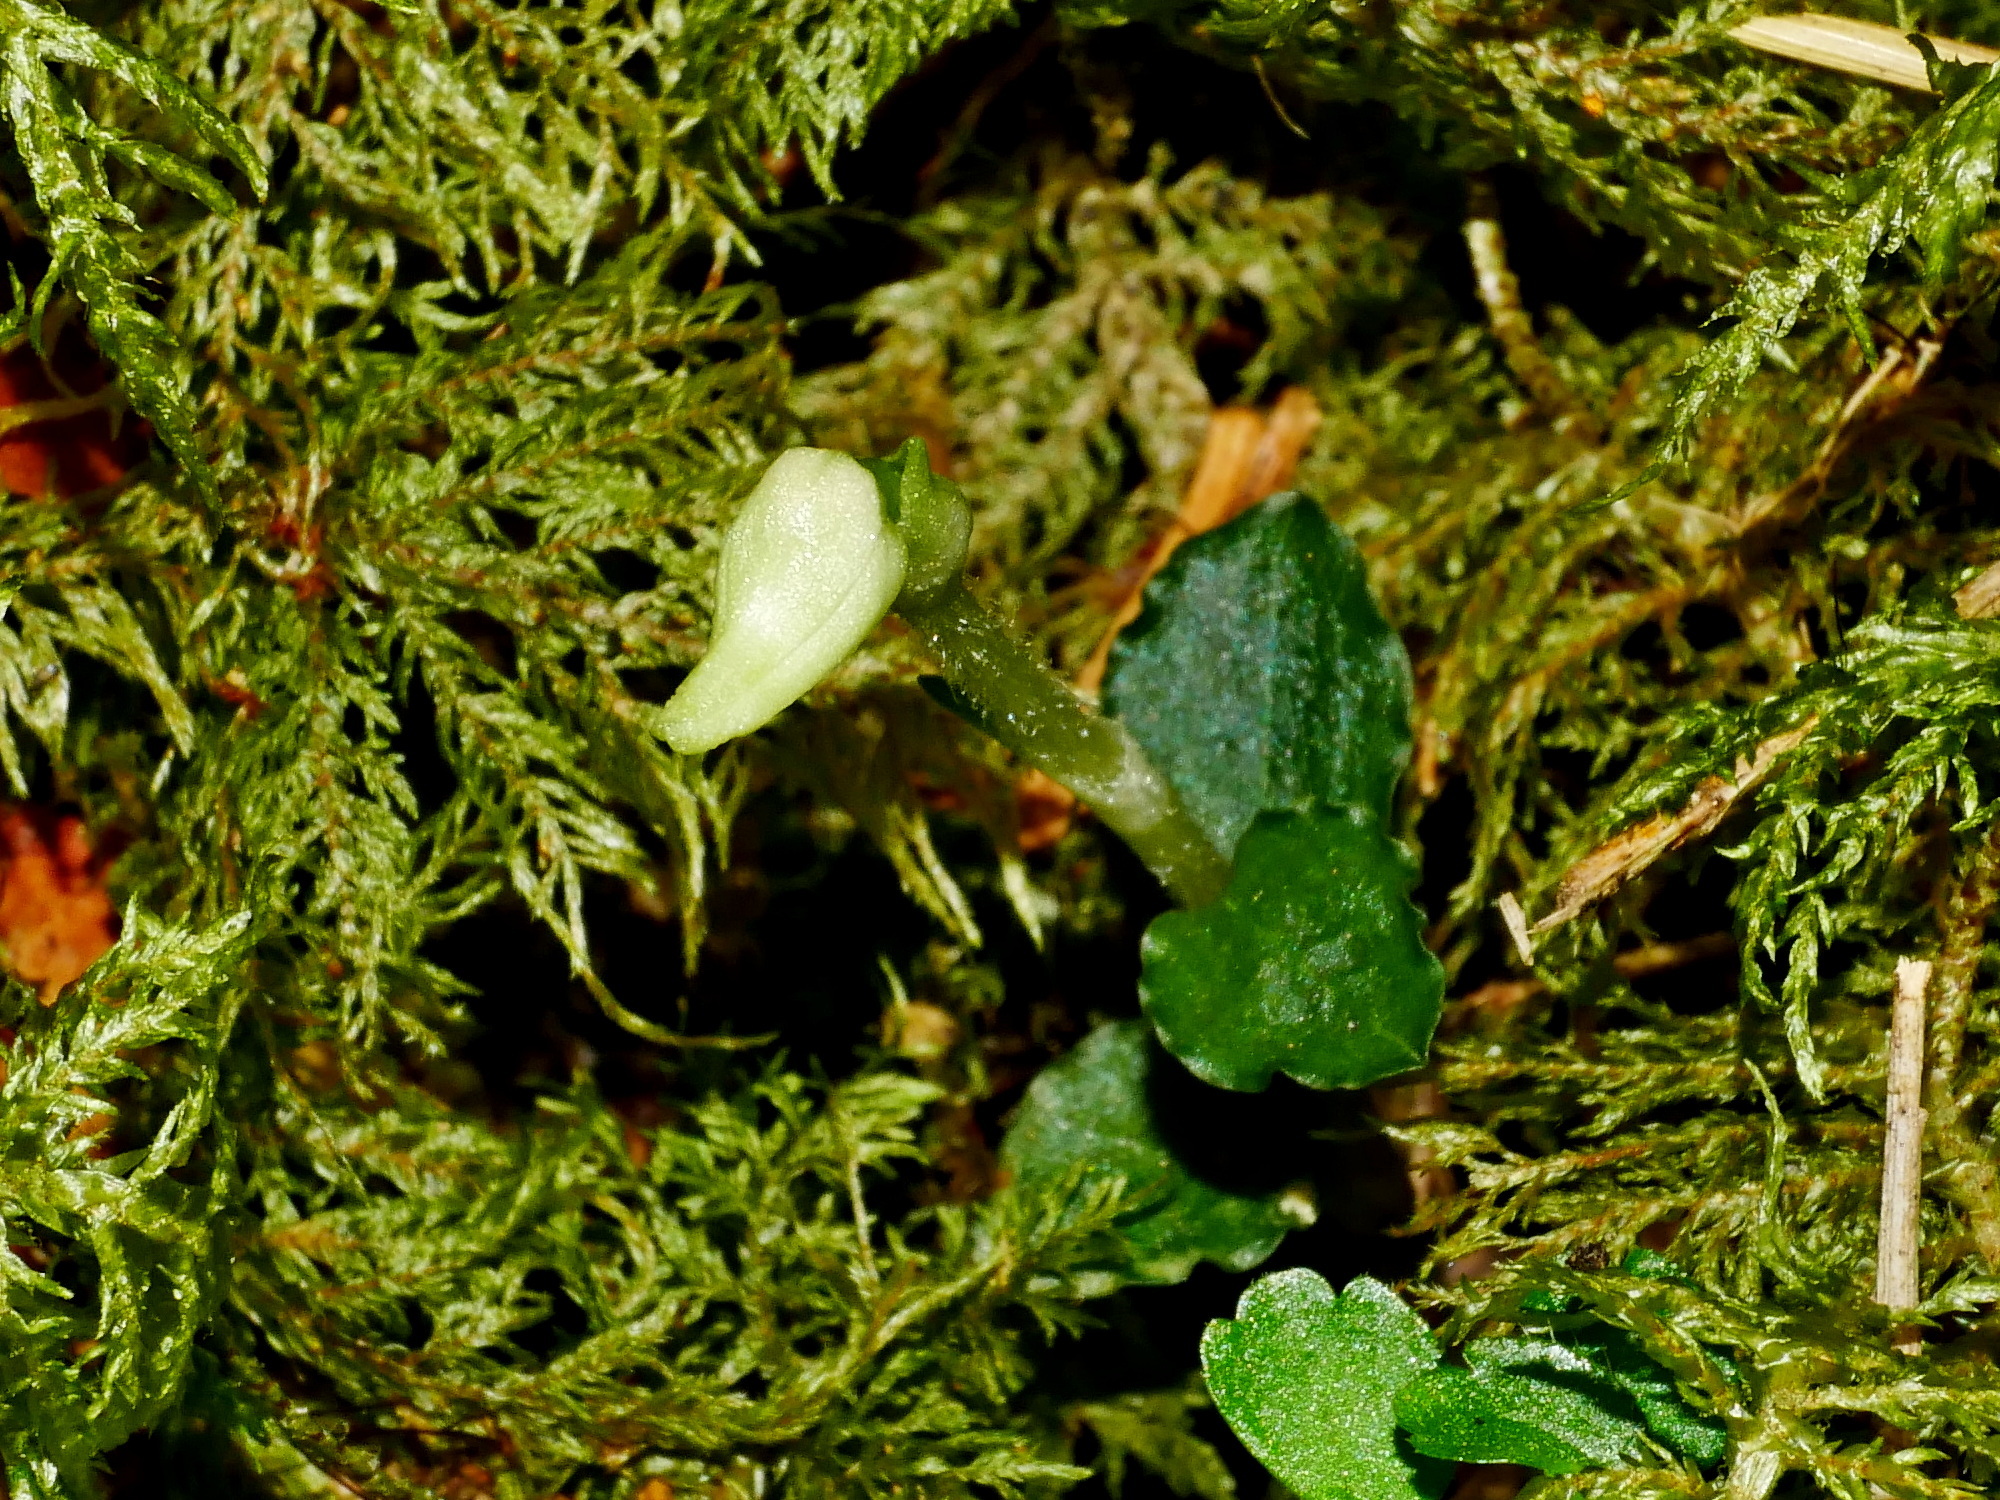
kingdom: Plantae
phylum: Tracheophyta
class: Liliopsida
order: Asparagales
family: Orchidaceae
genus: Odontochilus
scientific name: Odontochilus drymoglossifolius
